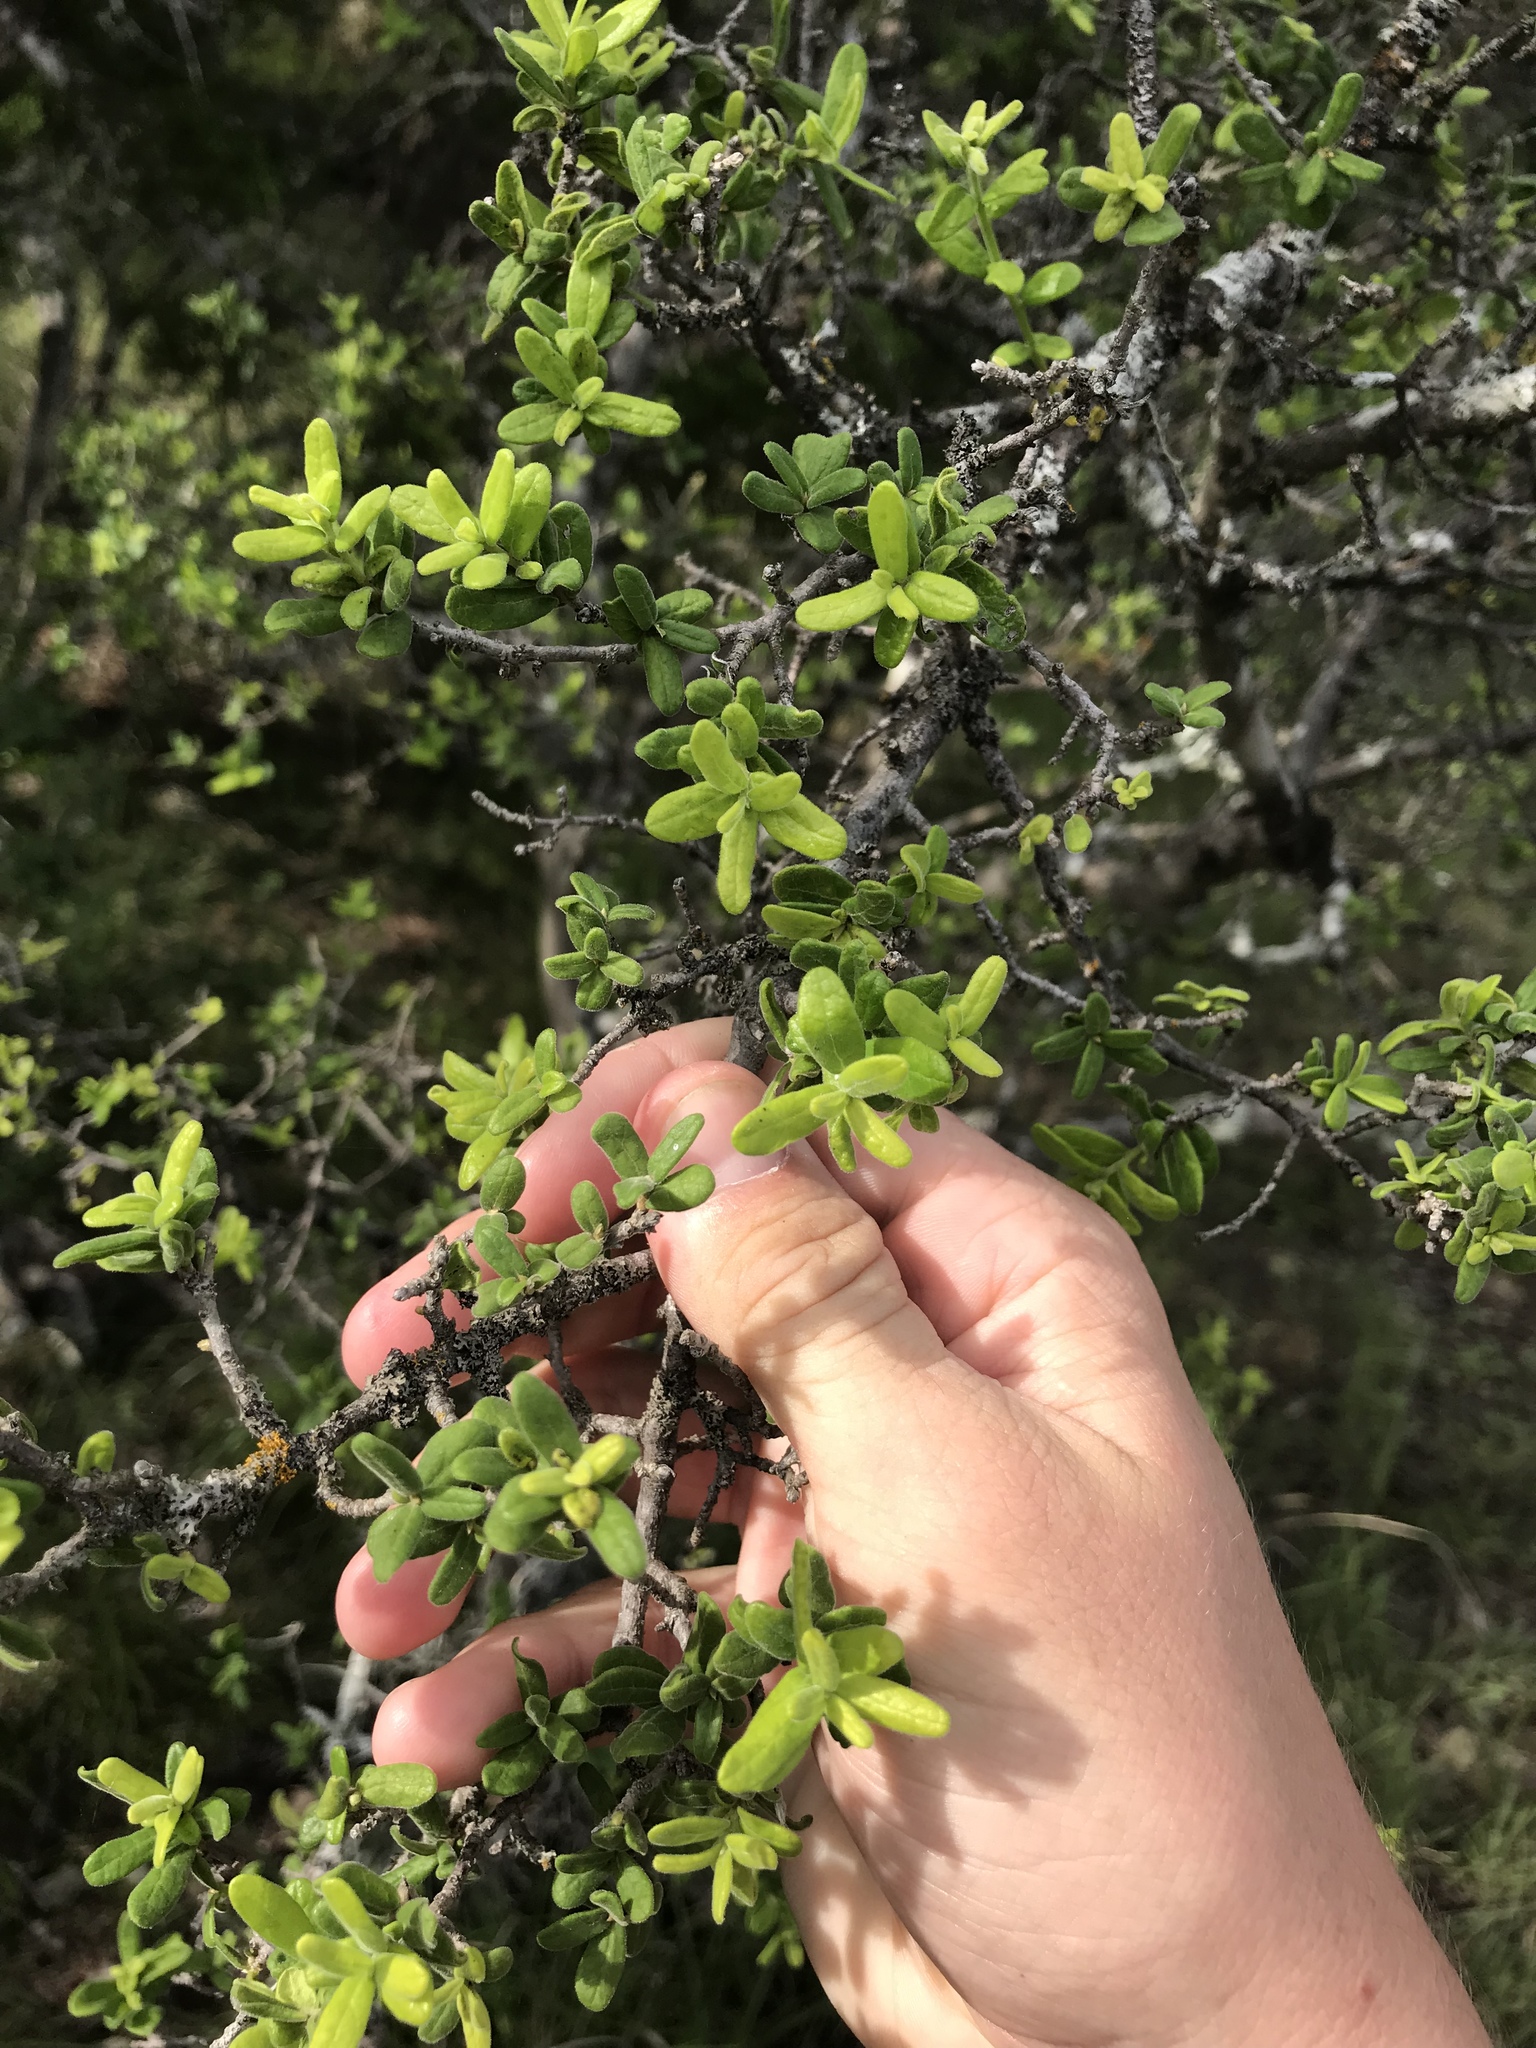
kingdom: Plantae
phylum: Tracheophyta
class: Magnoliopsida
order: Ericales
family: Ebenaceae
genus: Diospyros
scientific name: Diospyros texana
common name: Texas persimmon
